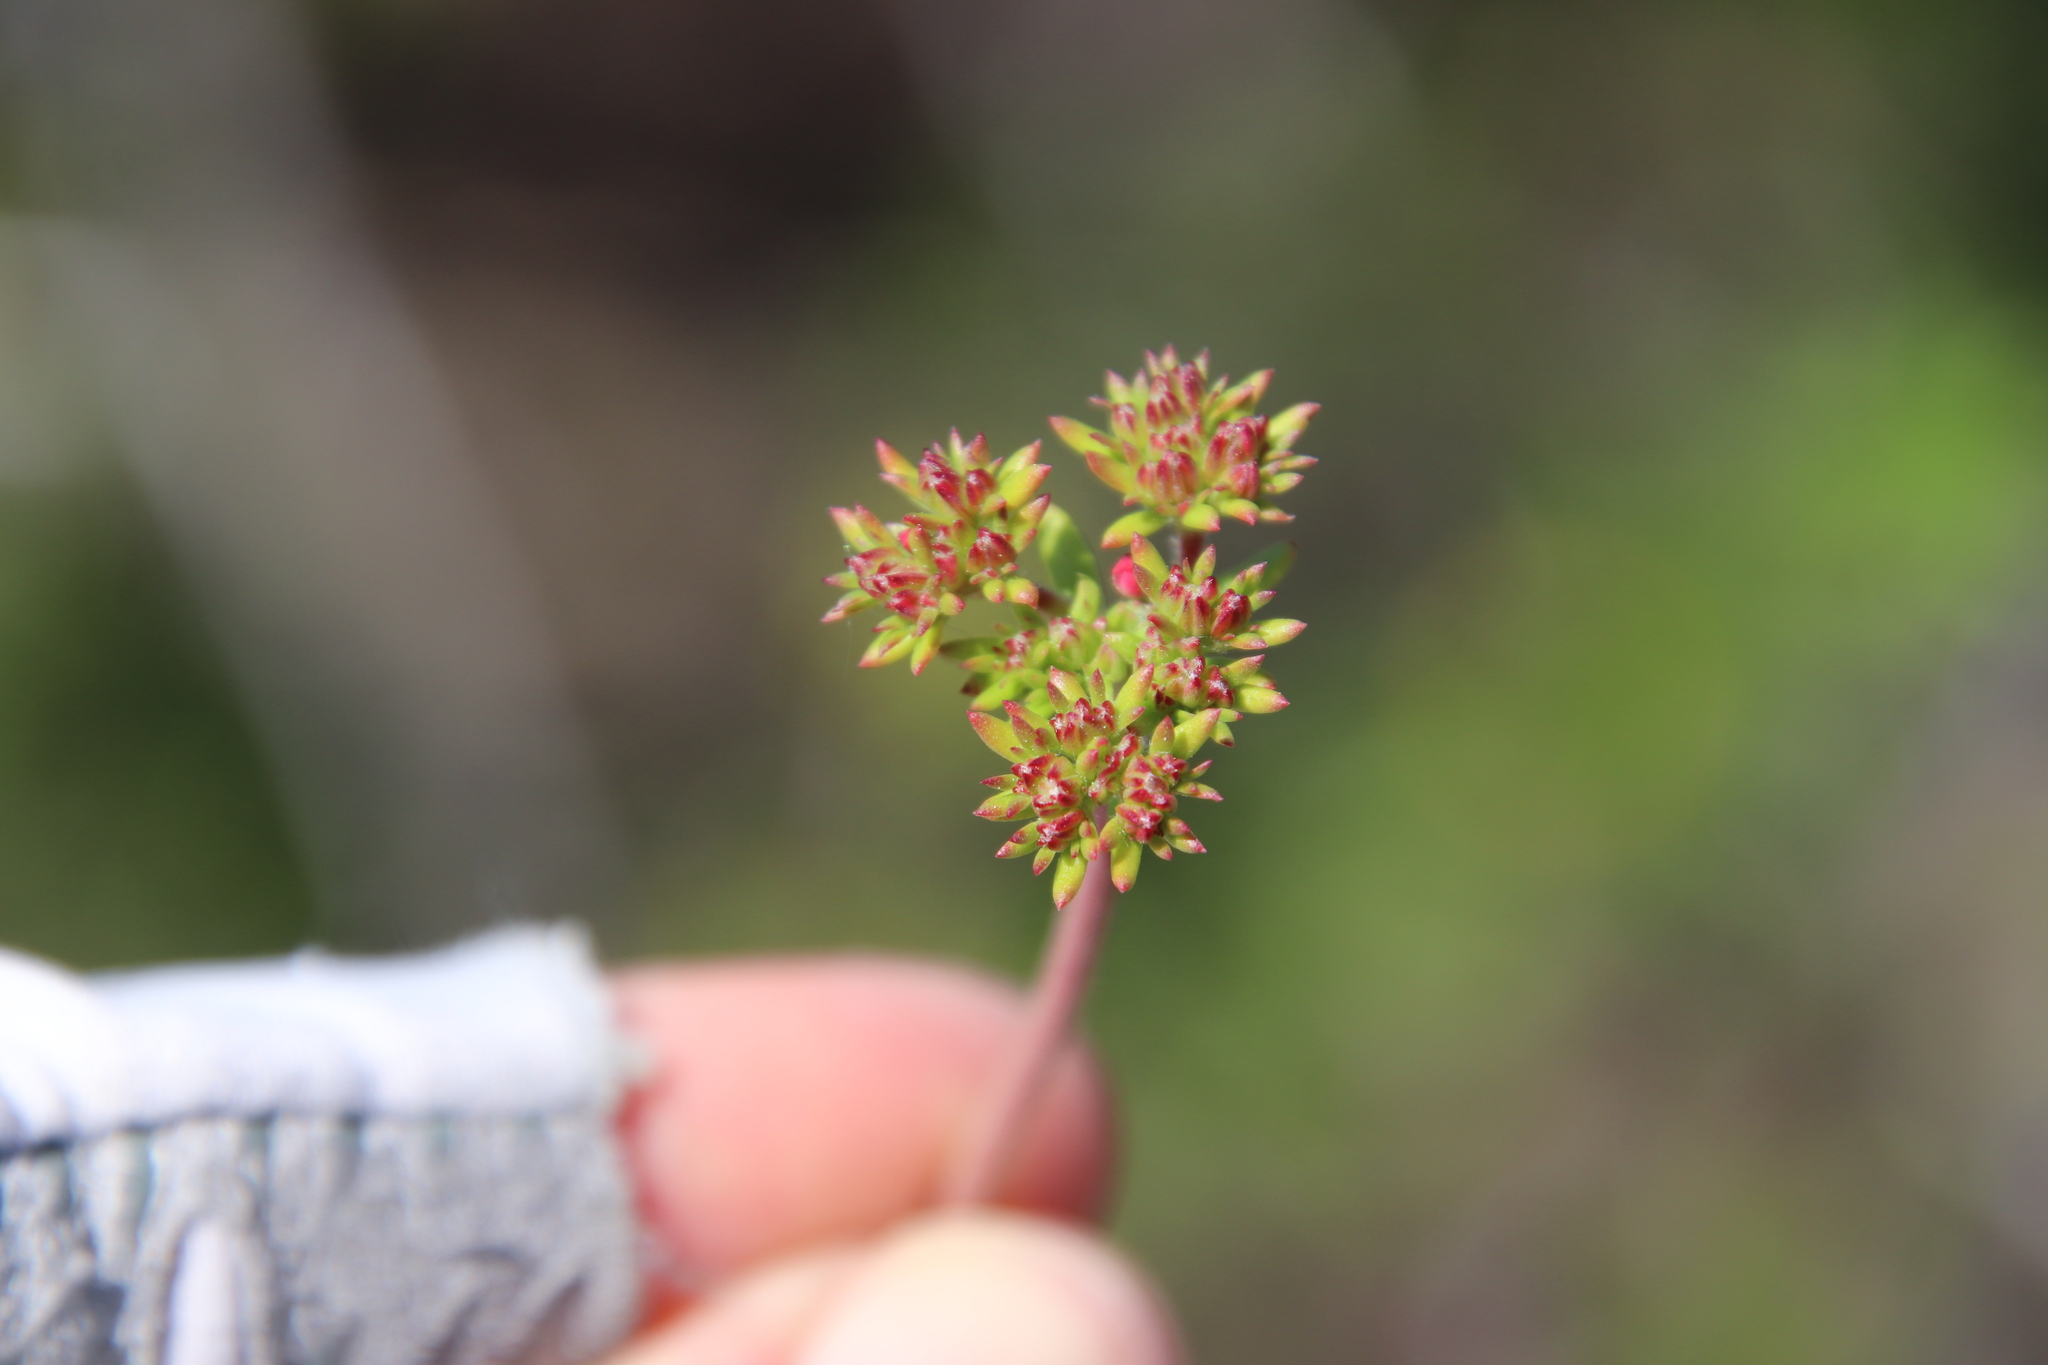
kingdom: Plantae
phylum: Tracheophyta
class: Magnoliopsida
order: Caryophyllales
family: Polygonaceae
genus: Eriogonum
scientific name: Eriogonum fasciculatum
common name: California wild buckwheat
